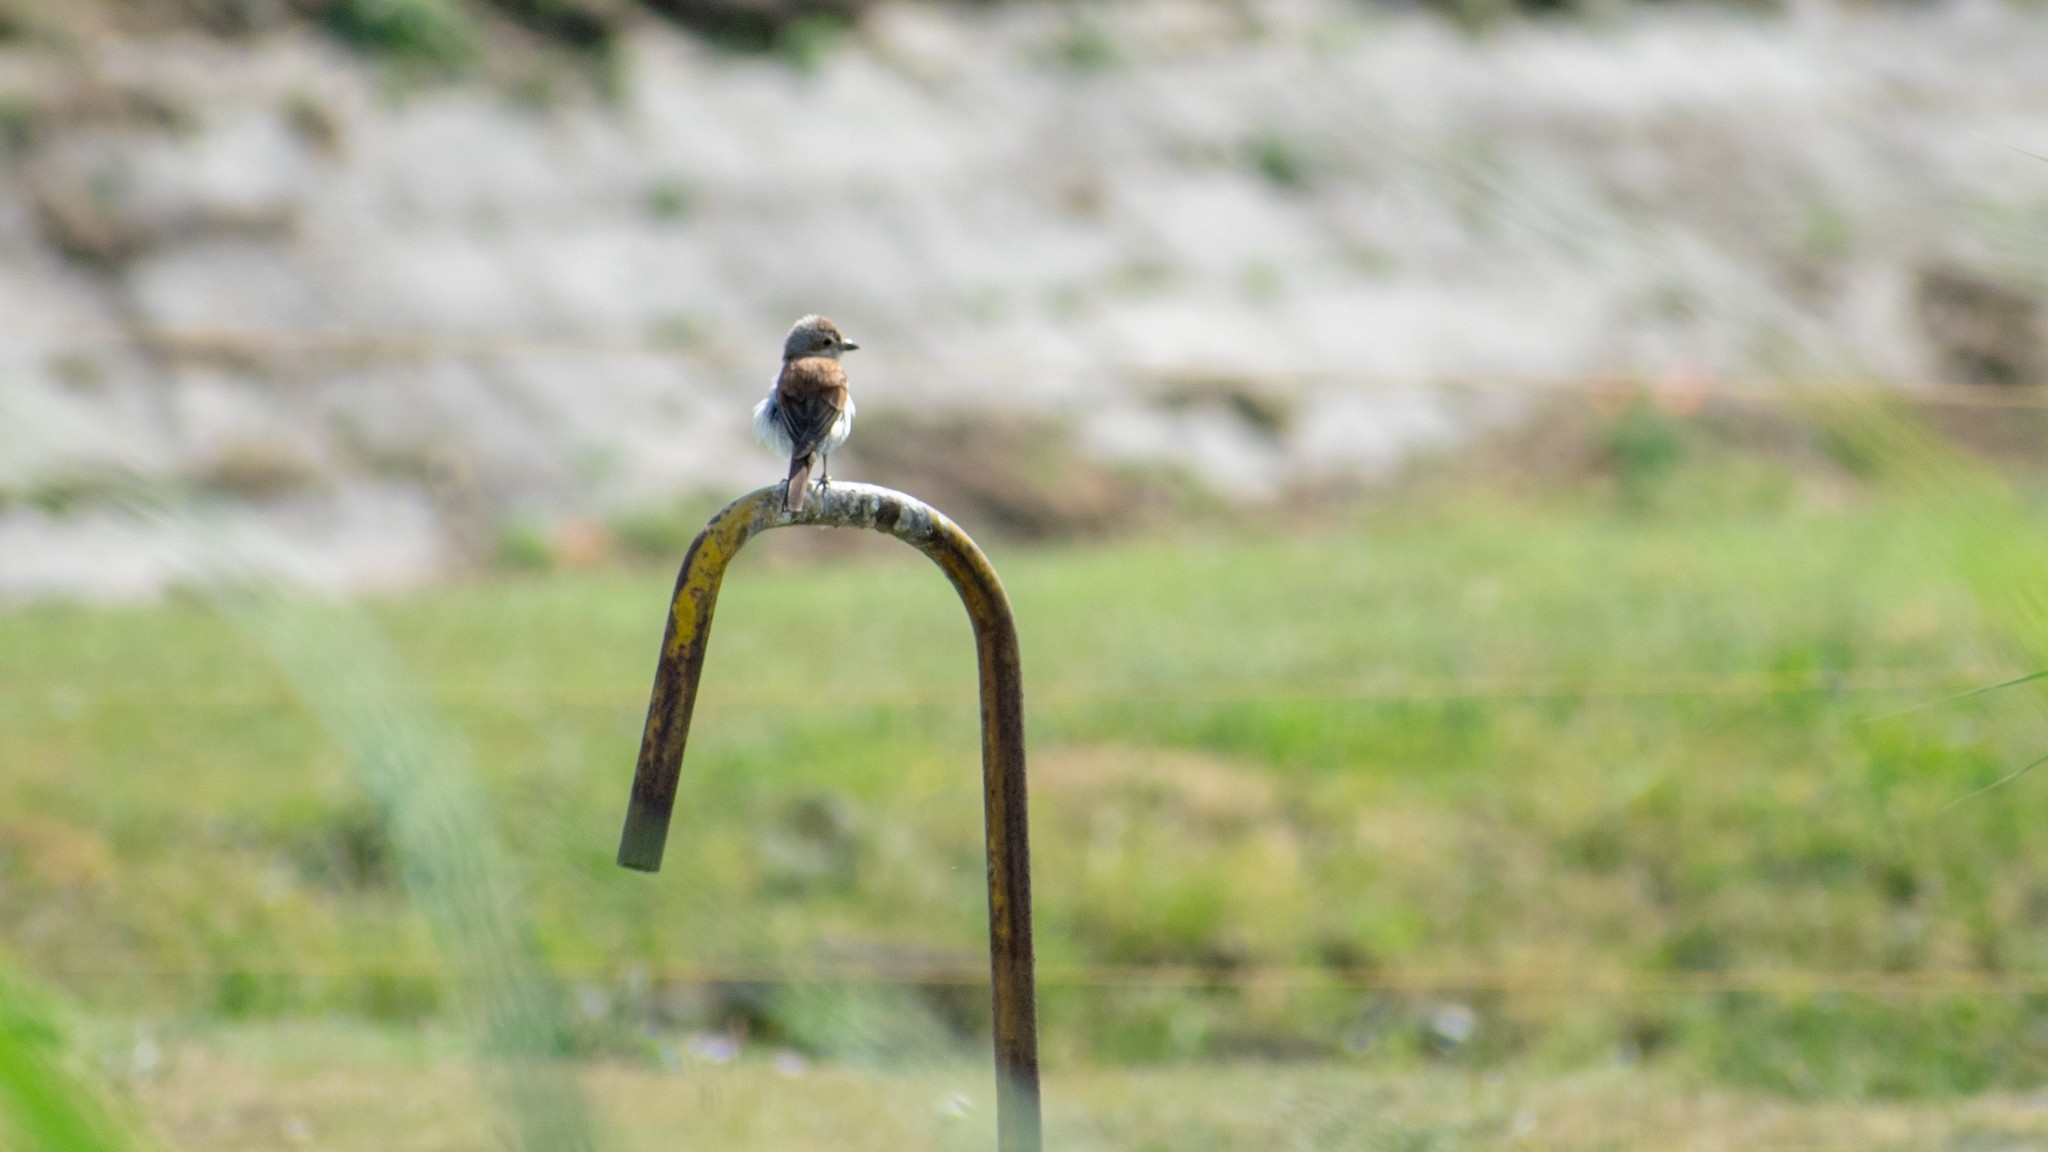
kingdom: Animalia
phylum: Chordata
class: Aves
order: Passeriformes
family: Laniidae
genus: Lanius
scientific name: Lanius collurio
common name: Red-backed shrike
